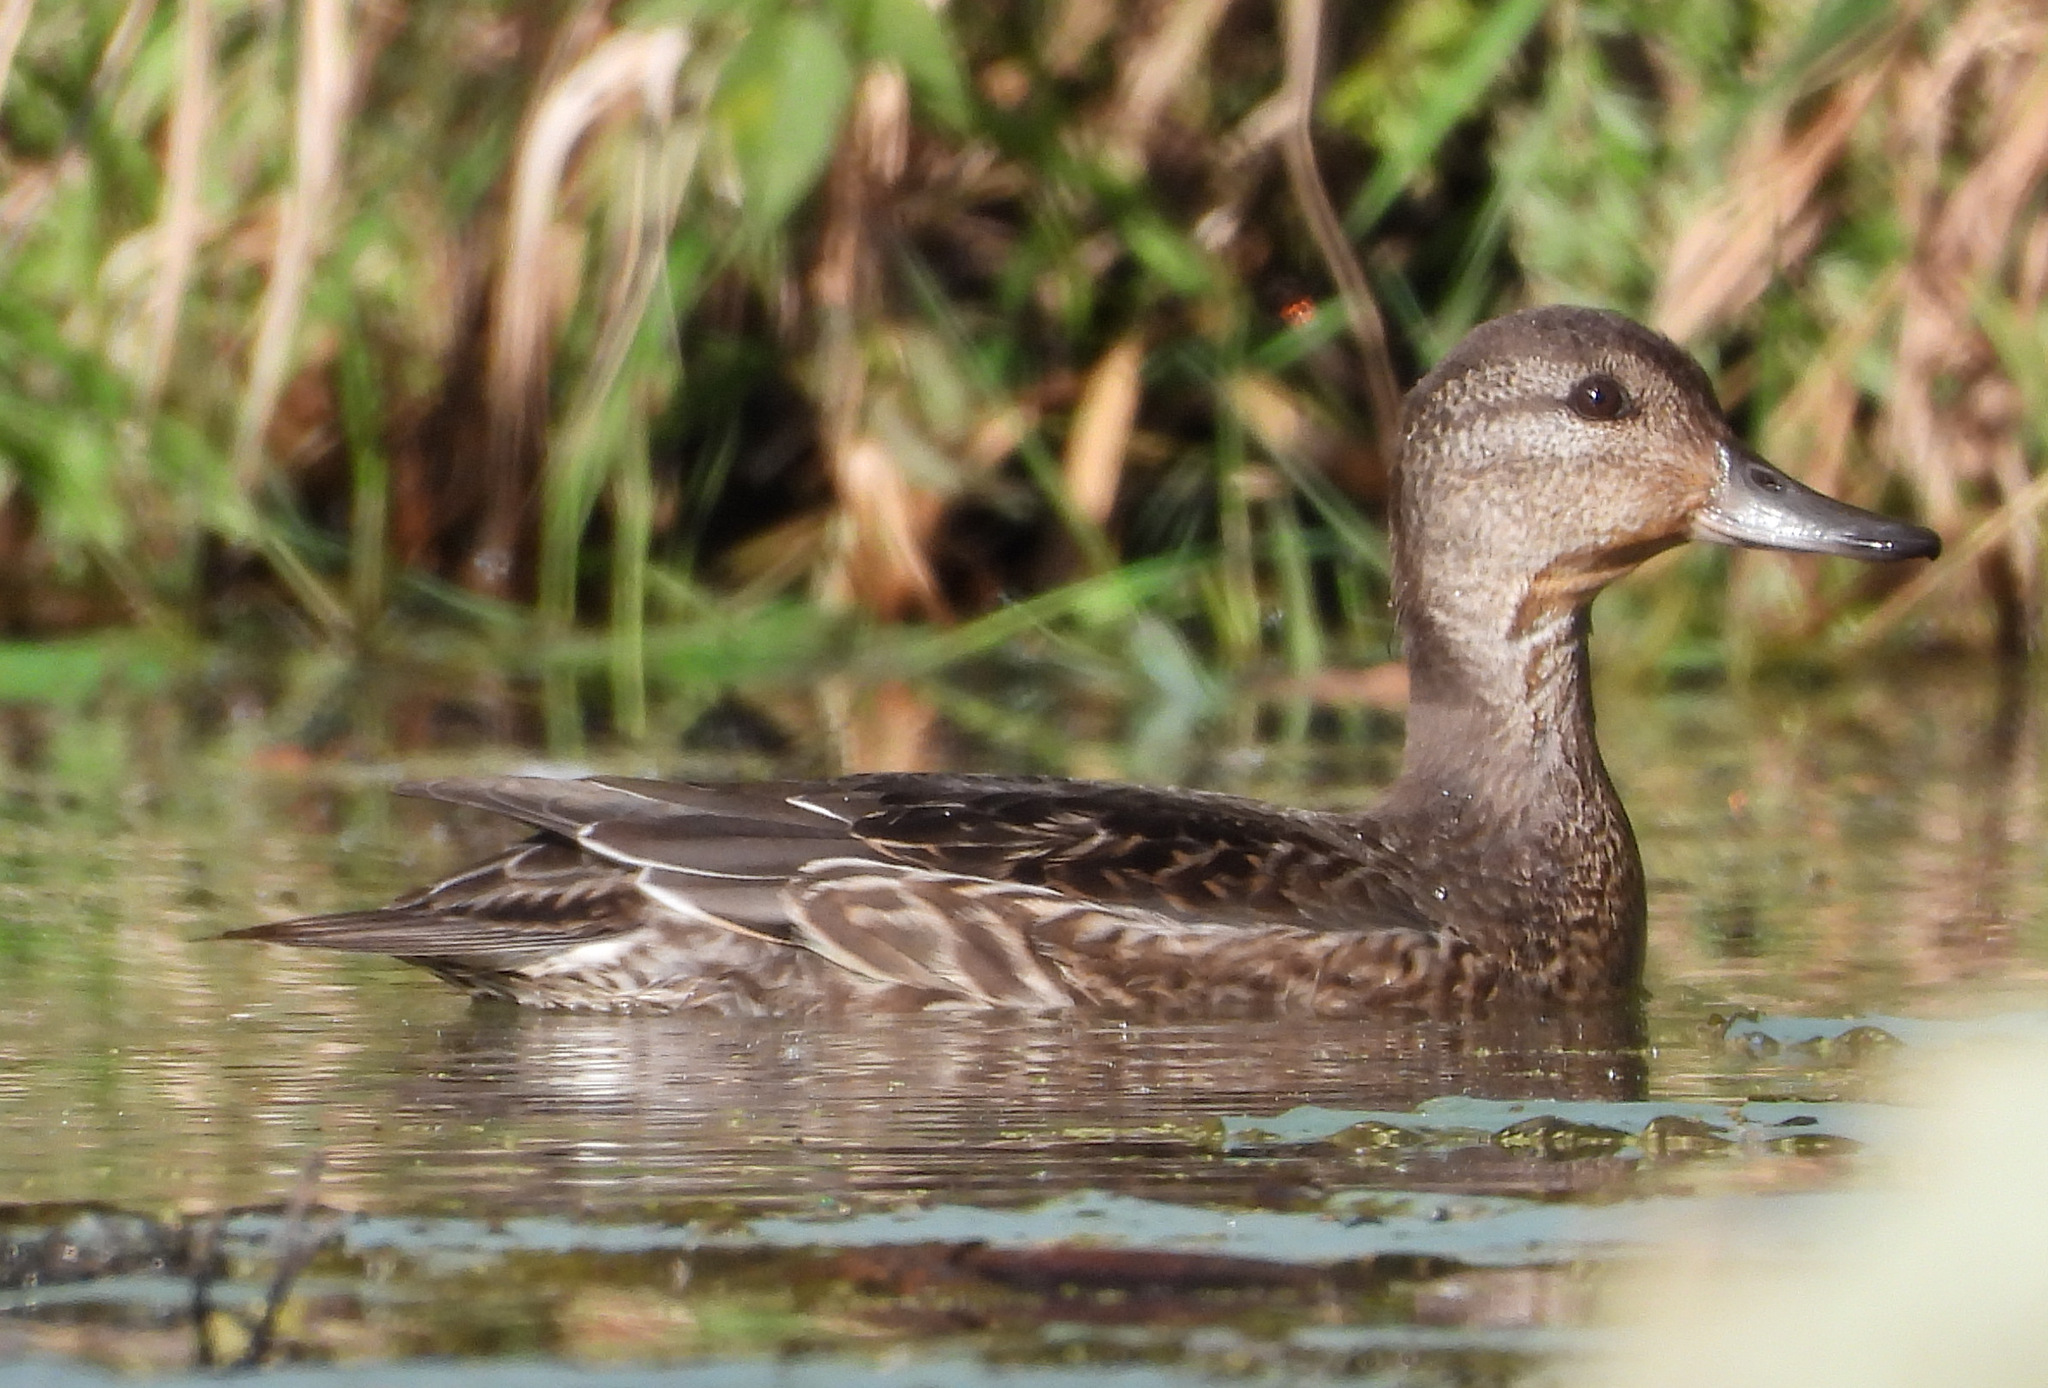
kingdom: Animalia
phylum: Chordata
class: Aves
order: Anseriformes
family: Anatidae
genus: Anas
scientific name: Anas crecca
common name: Eurasian teal
